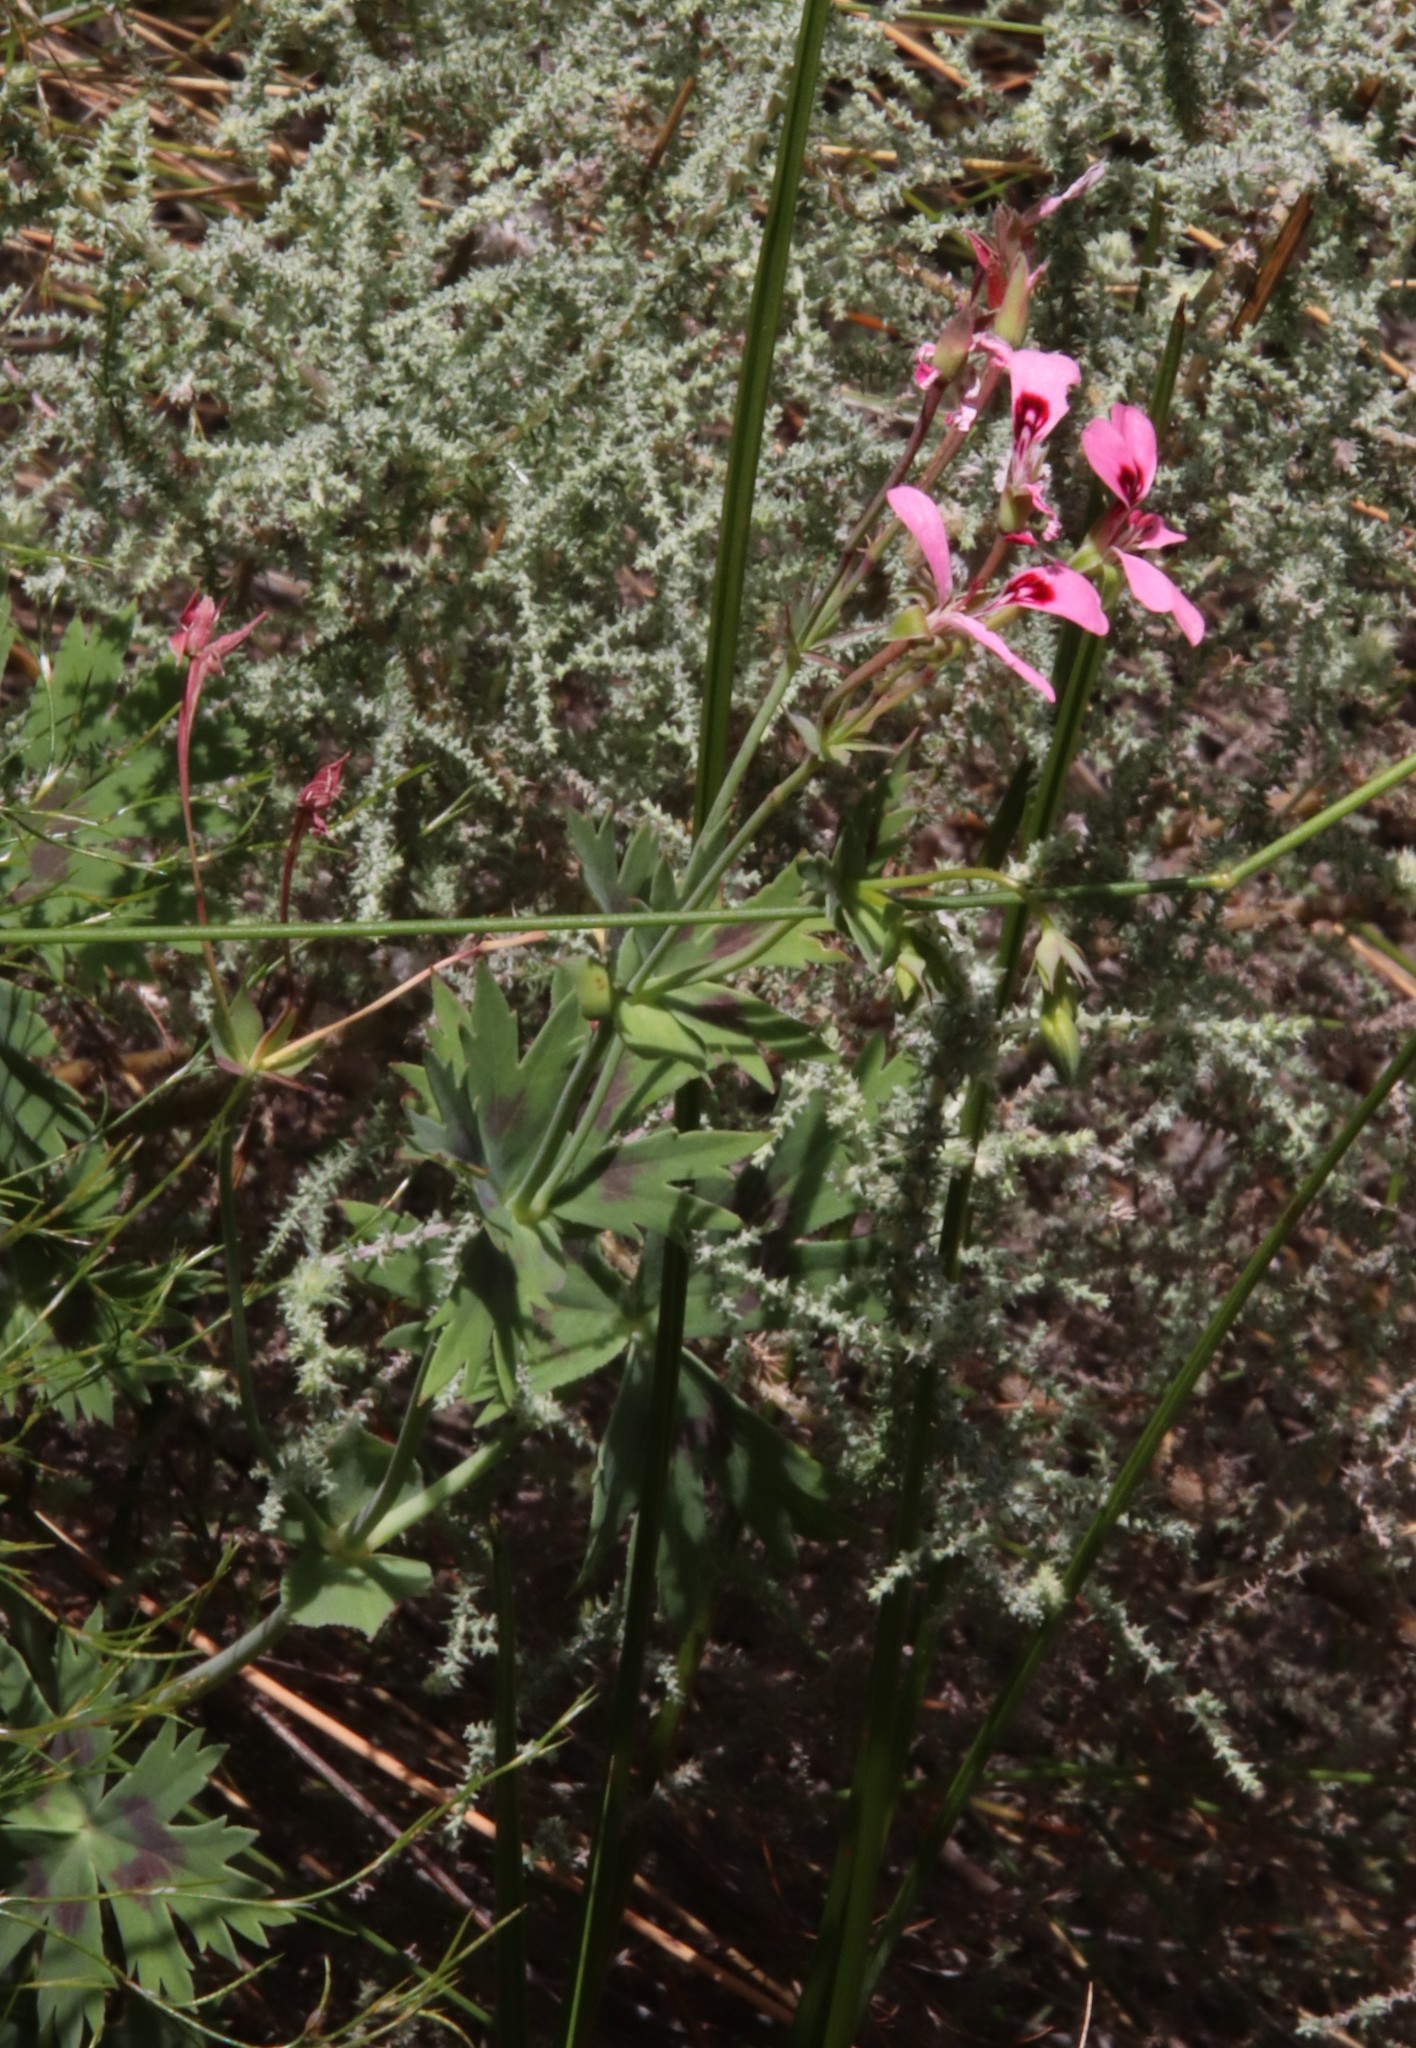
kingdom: Plantae
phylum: Tracheophyta
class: Magnoliopsida
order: Geraniales
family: Geraniaceae
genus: Pelargonium
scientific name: Pelargonium grandiflorum
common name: Large-flower pelargonium
